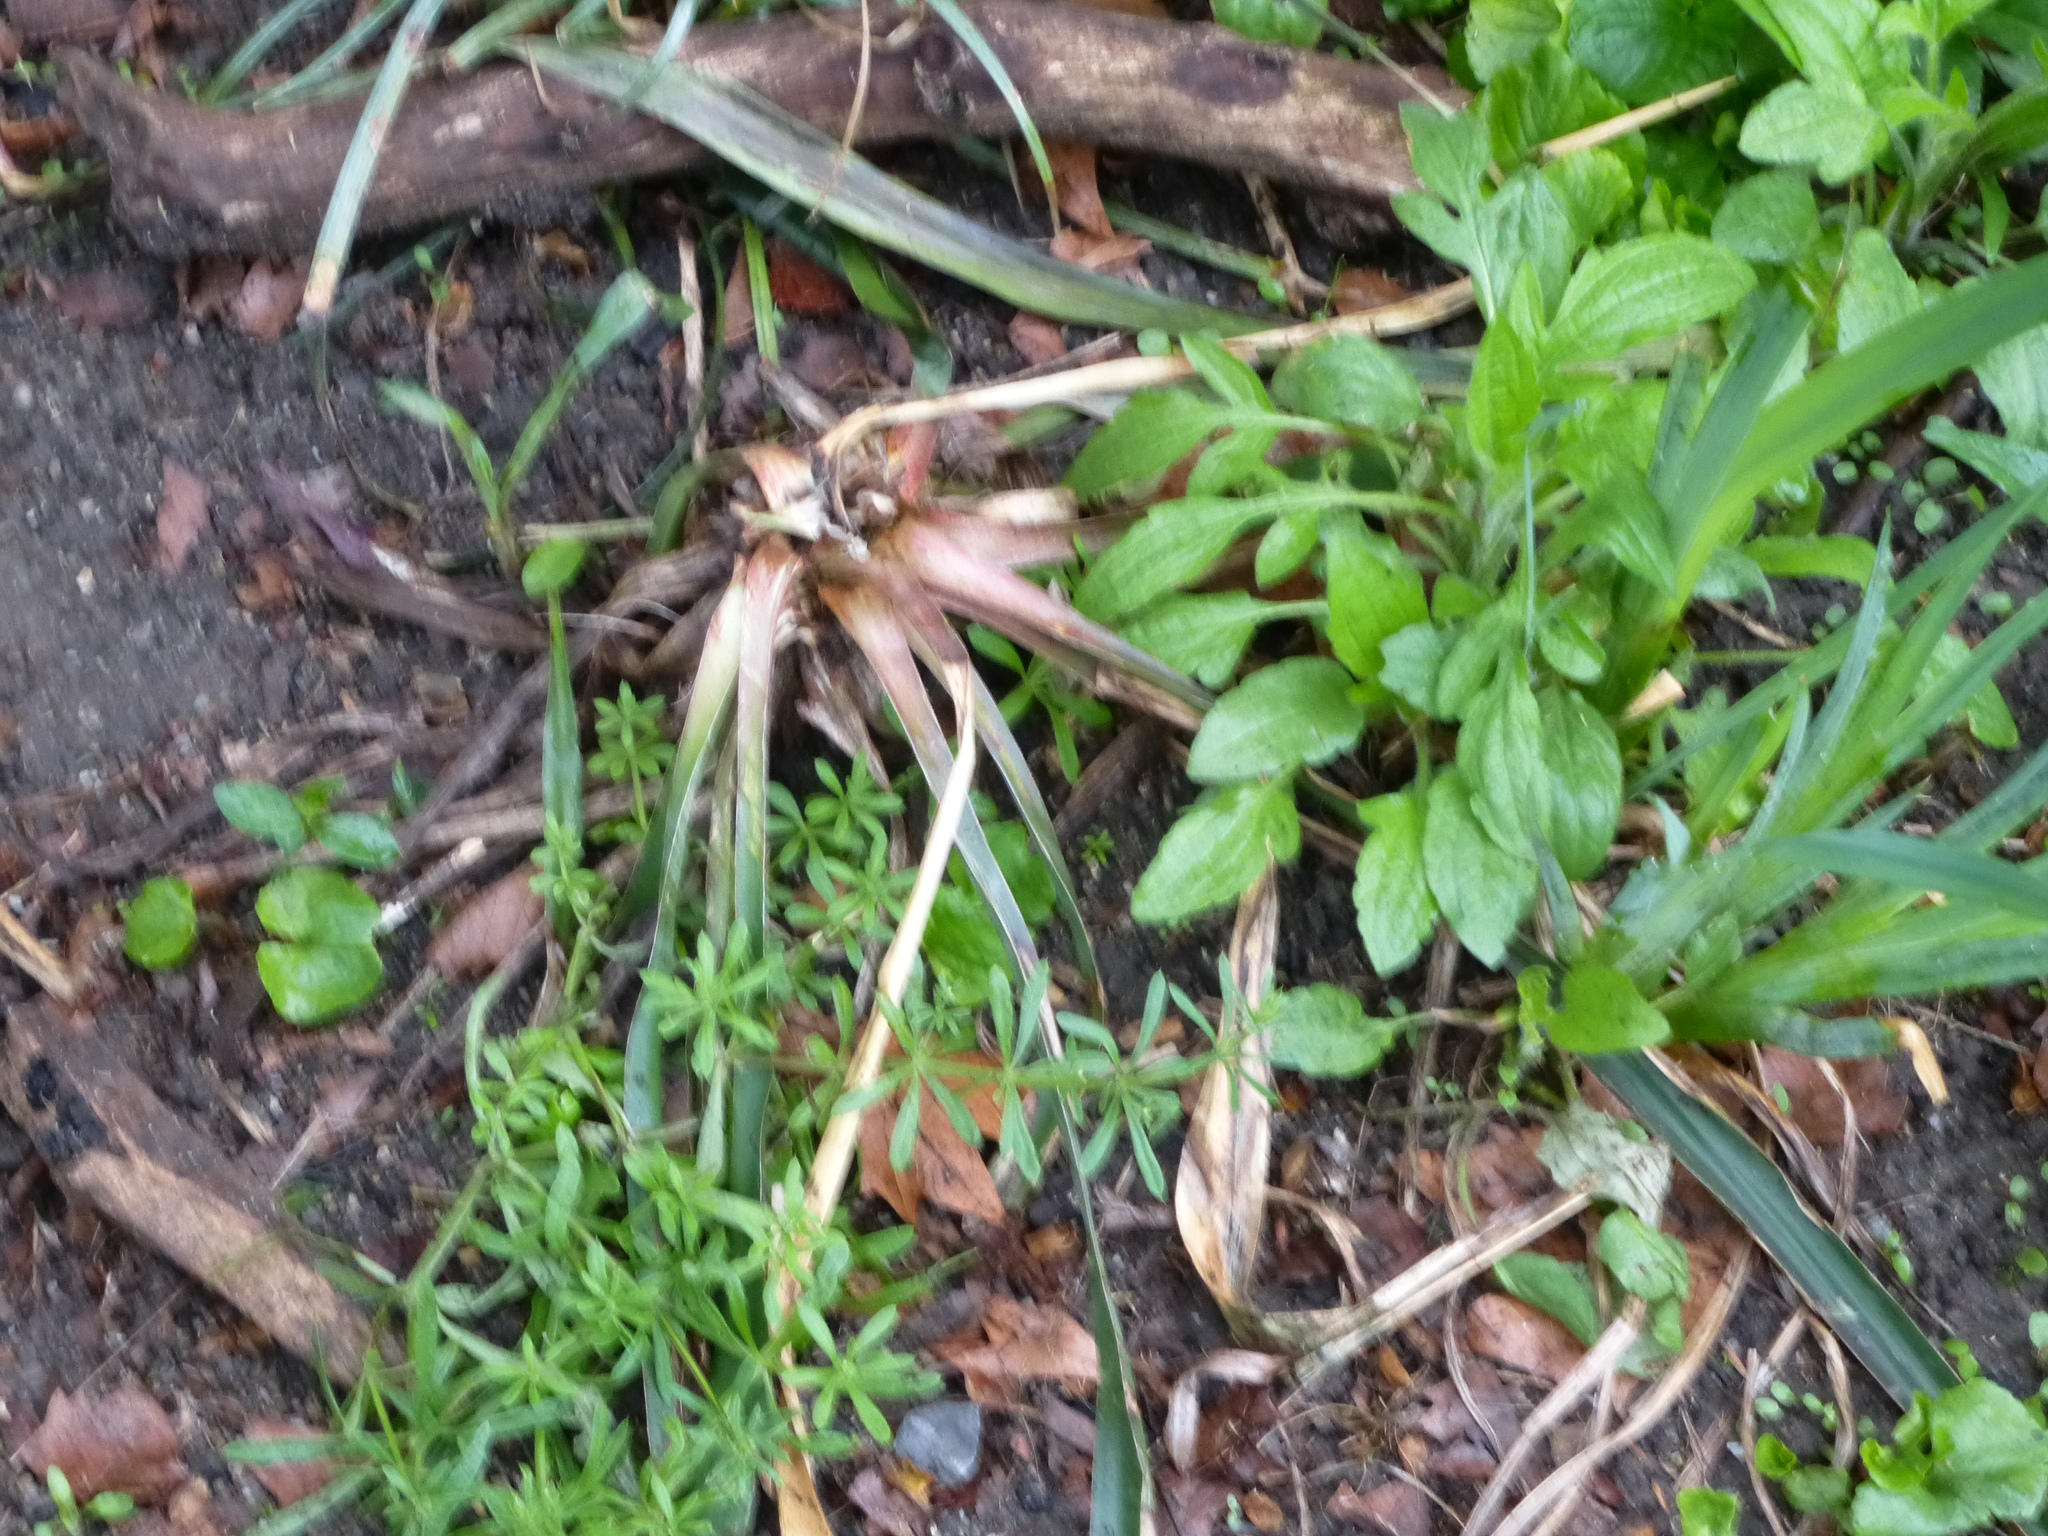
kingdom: Plantae
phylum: Tracheophyta
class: Liliopsida
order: Asparagales
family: Asparagaceae
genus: Yucca
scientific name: Yucca filamentosa
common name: Adam's-needle
